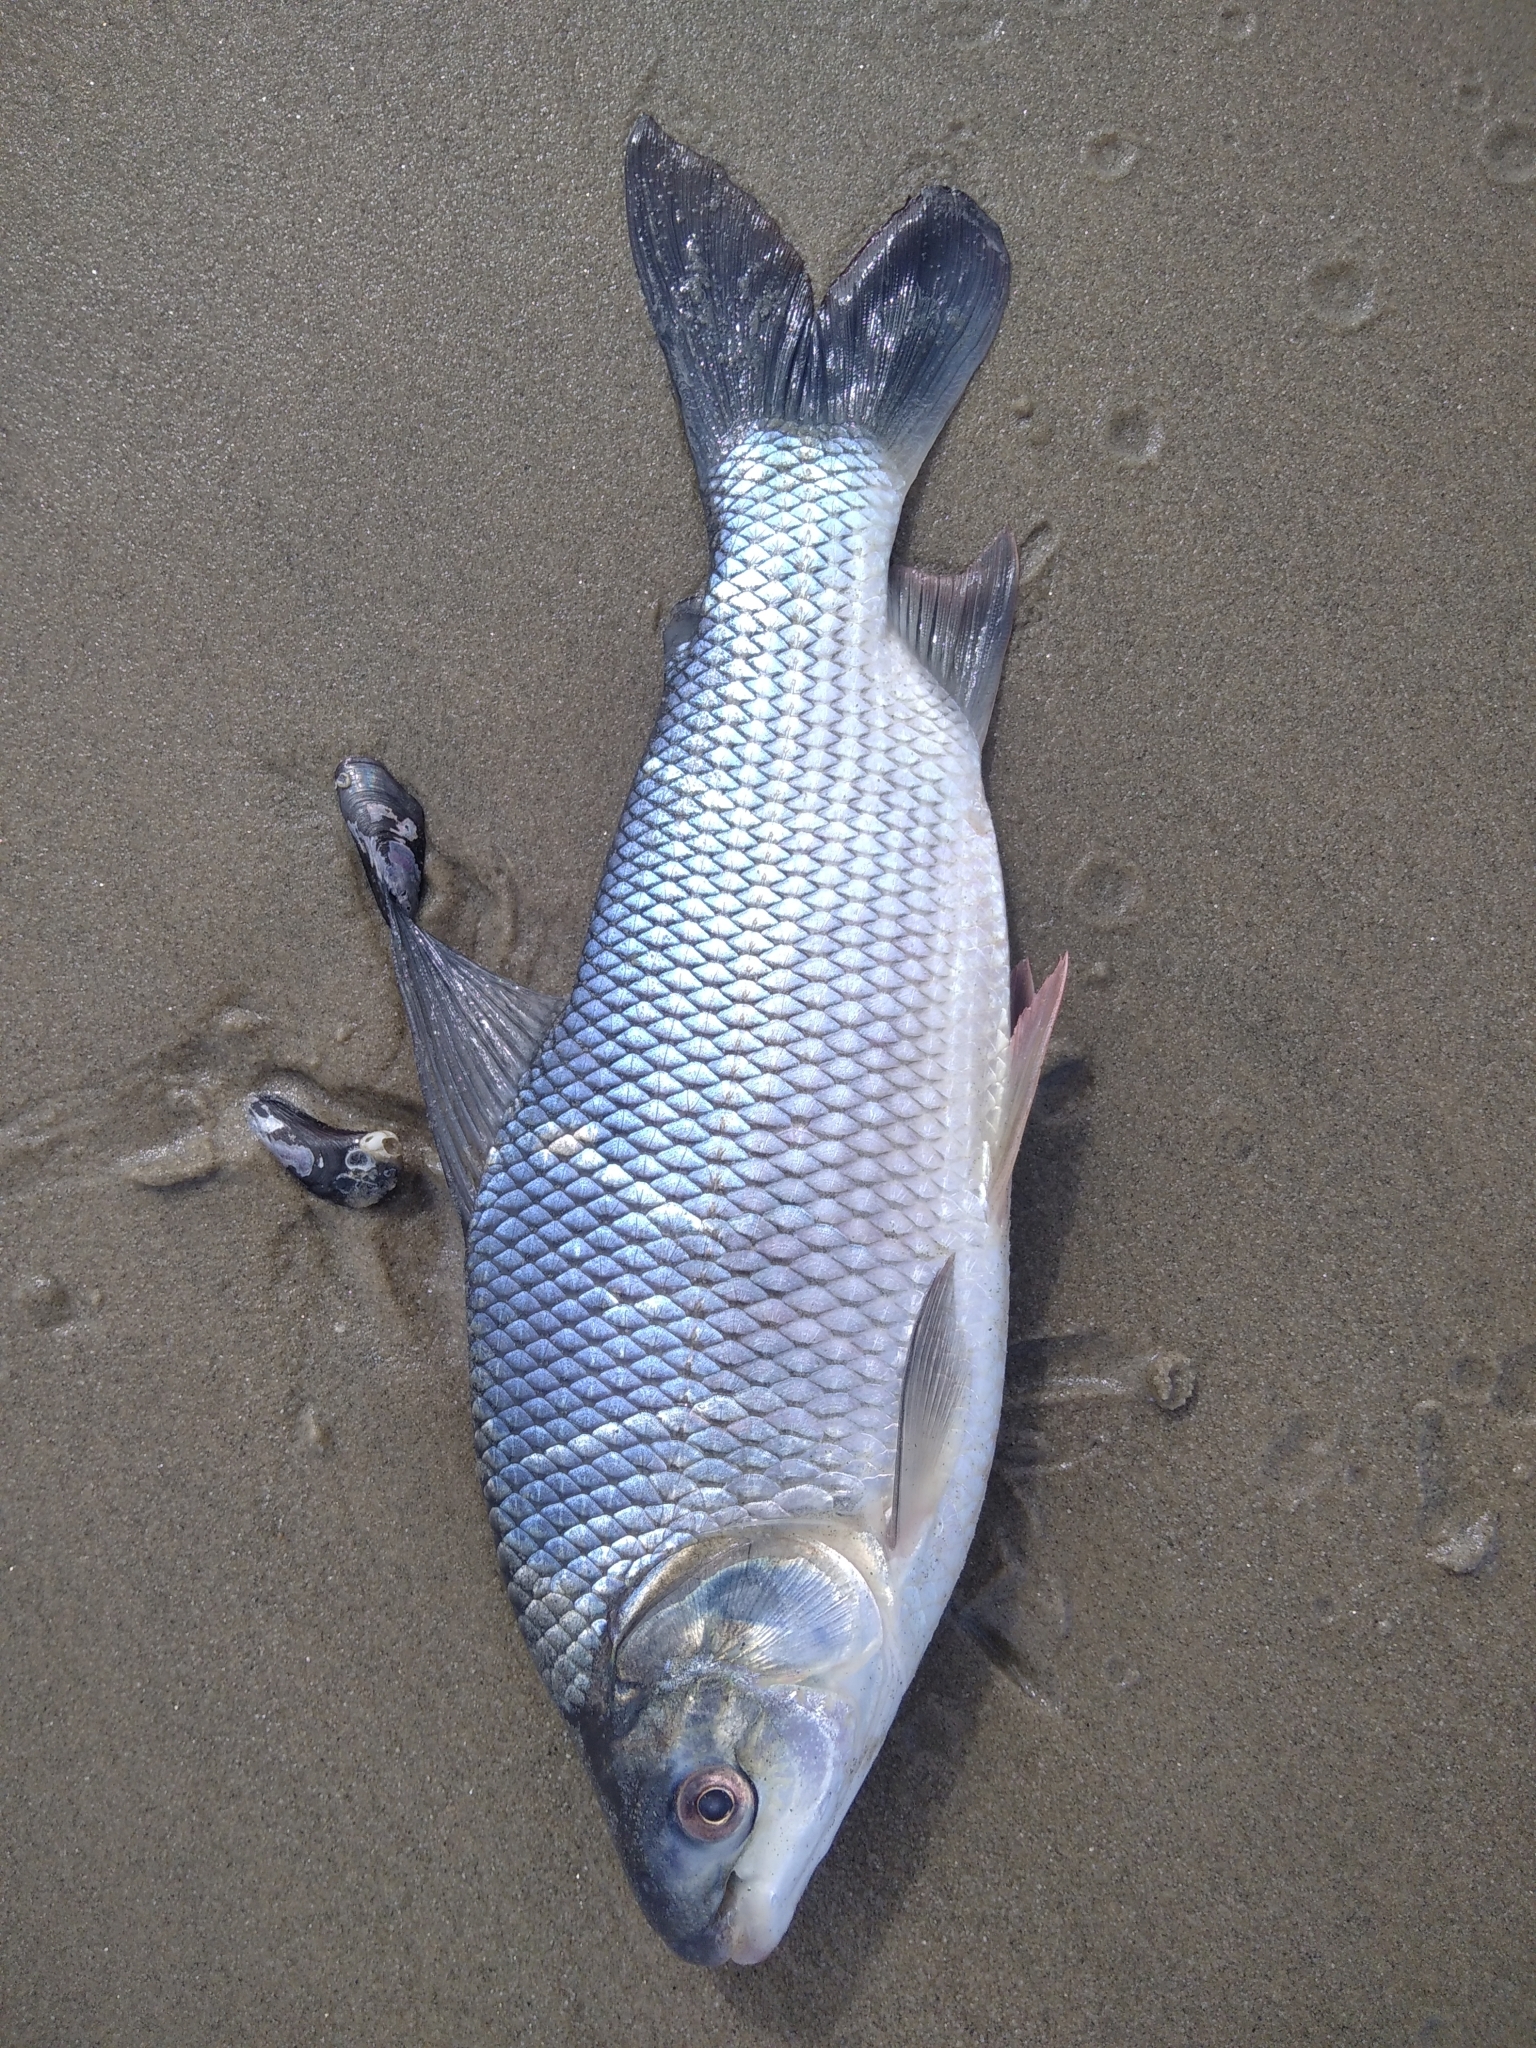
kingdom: Animalia
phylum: Chordata
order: Characiformes
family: Prochilodontidae
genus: Prochilodus
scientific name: Prochilodus lineatus
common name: Curimbata
